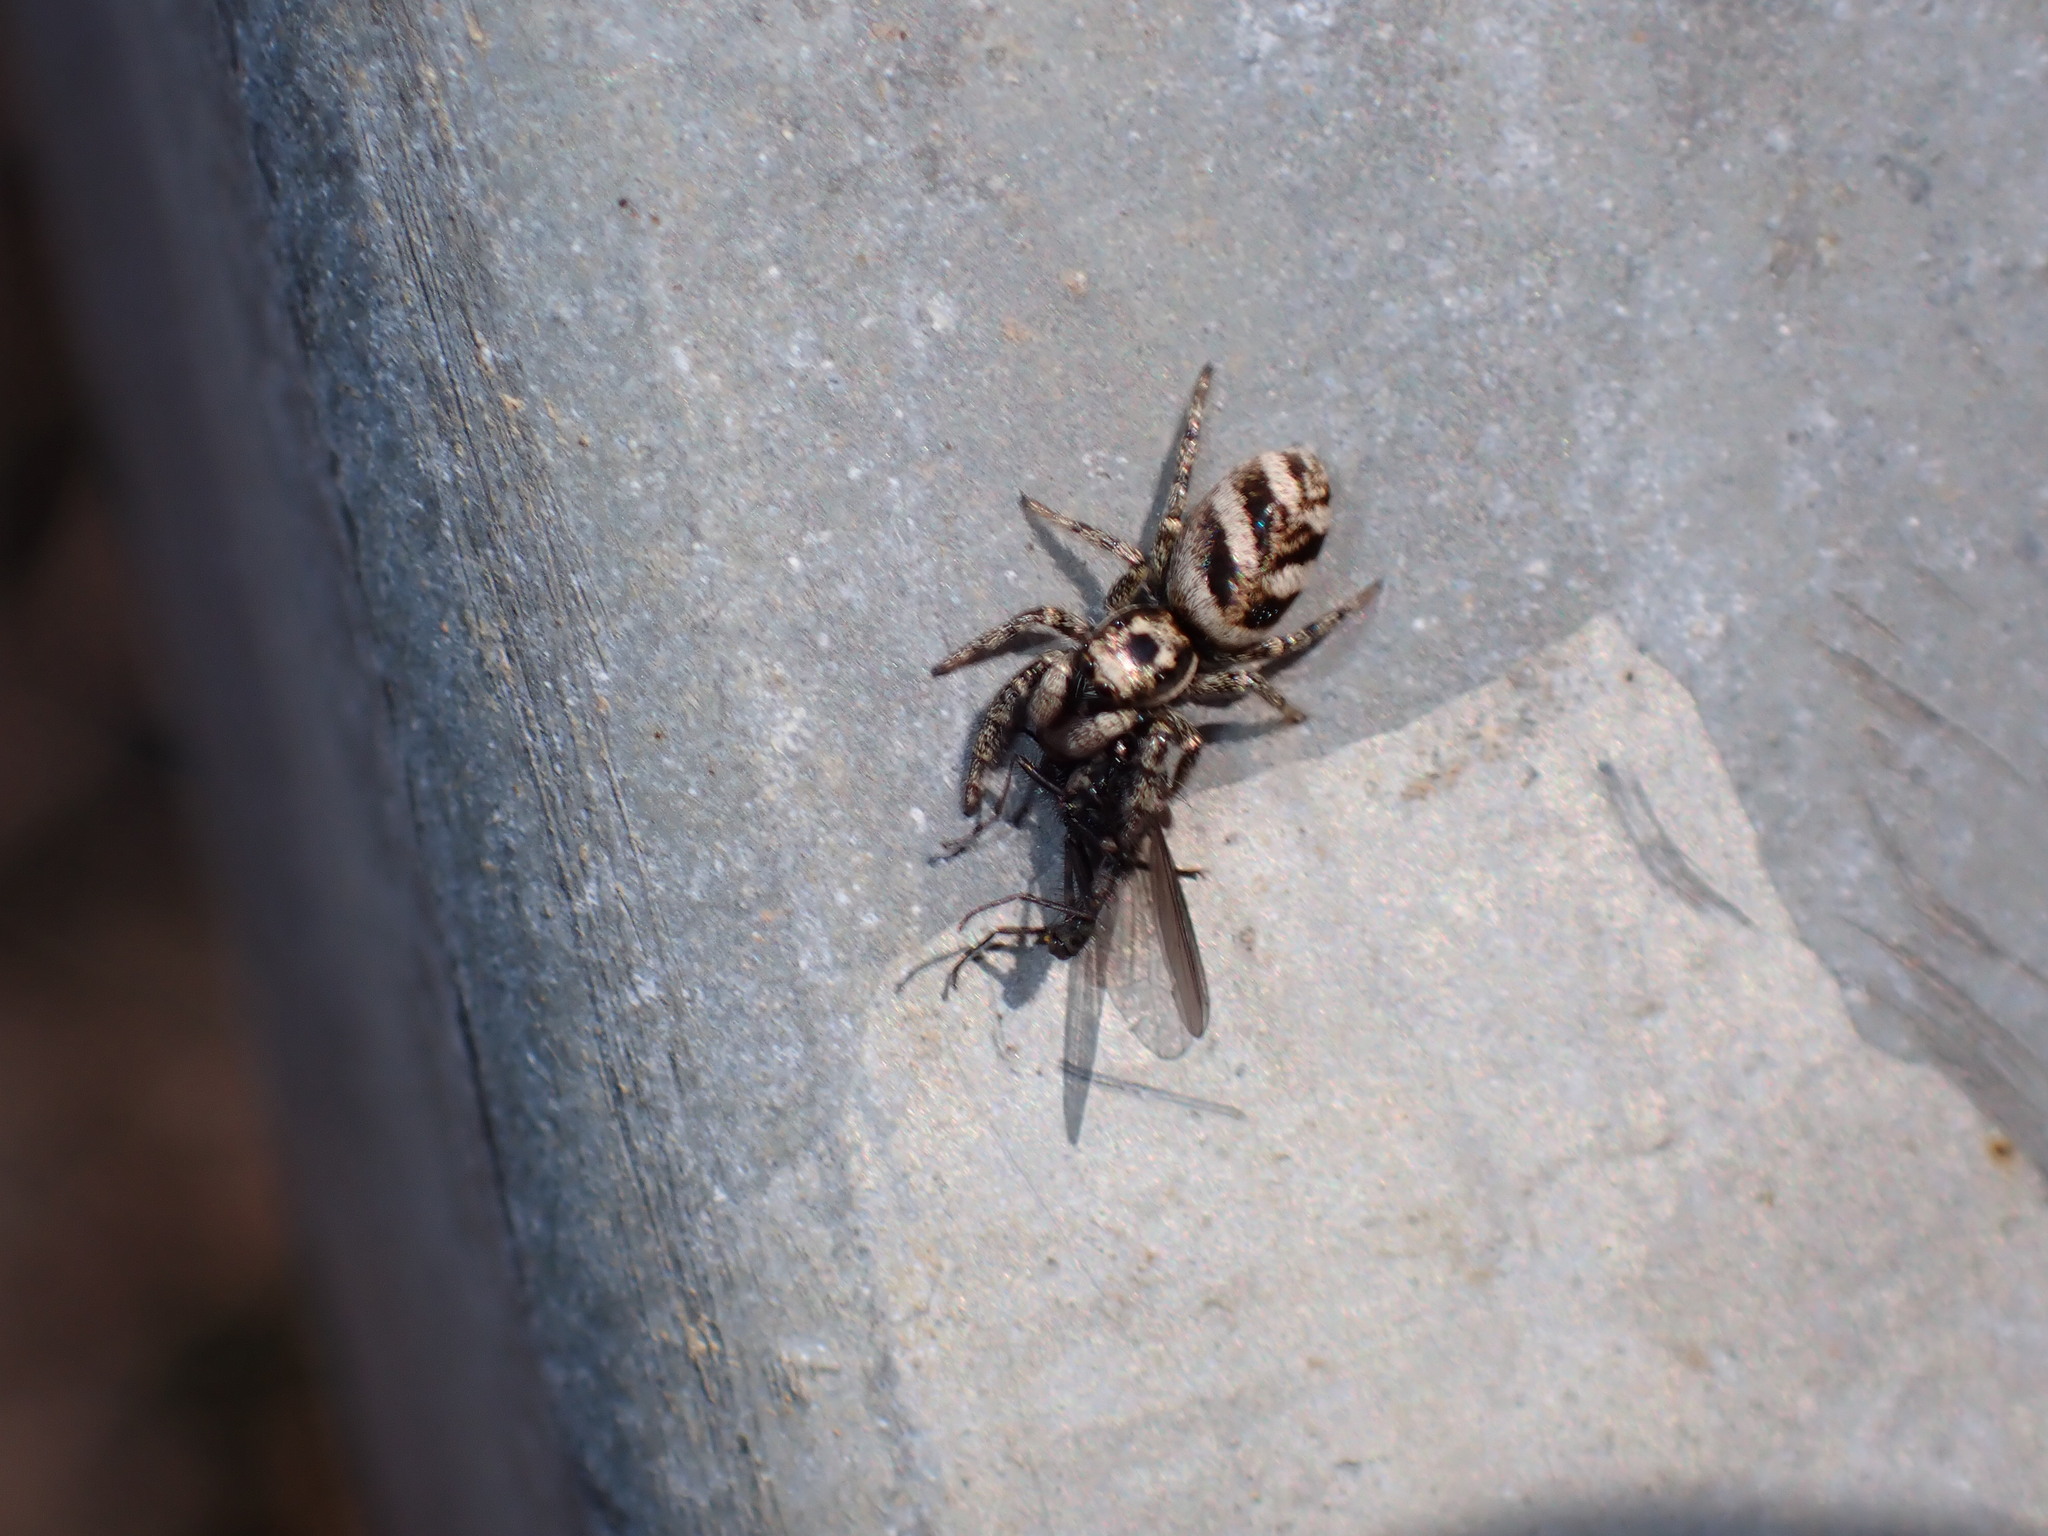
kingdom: Animalia
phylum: Arthropoda
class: Arachnida
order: Araneae
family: Salticidae
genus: Salticus
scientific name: Salticus scenicus
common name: Zebra jumper
